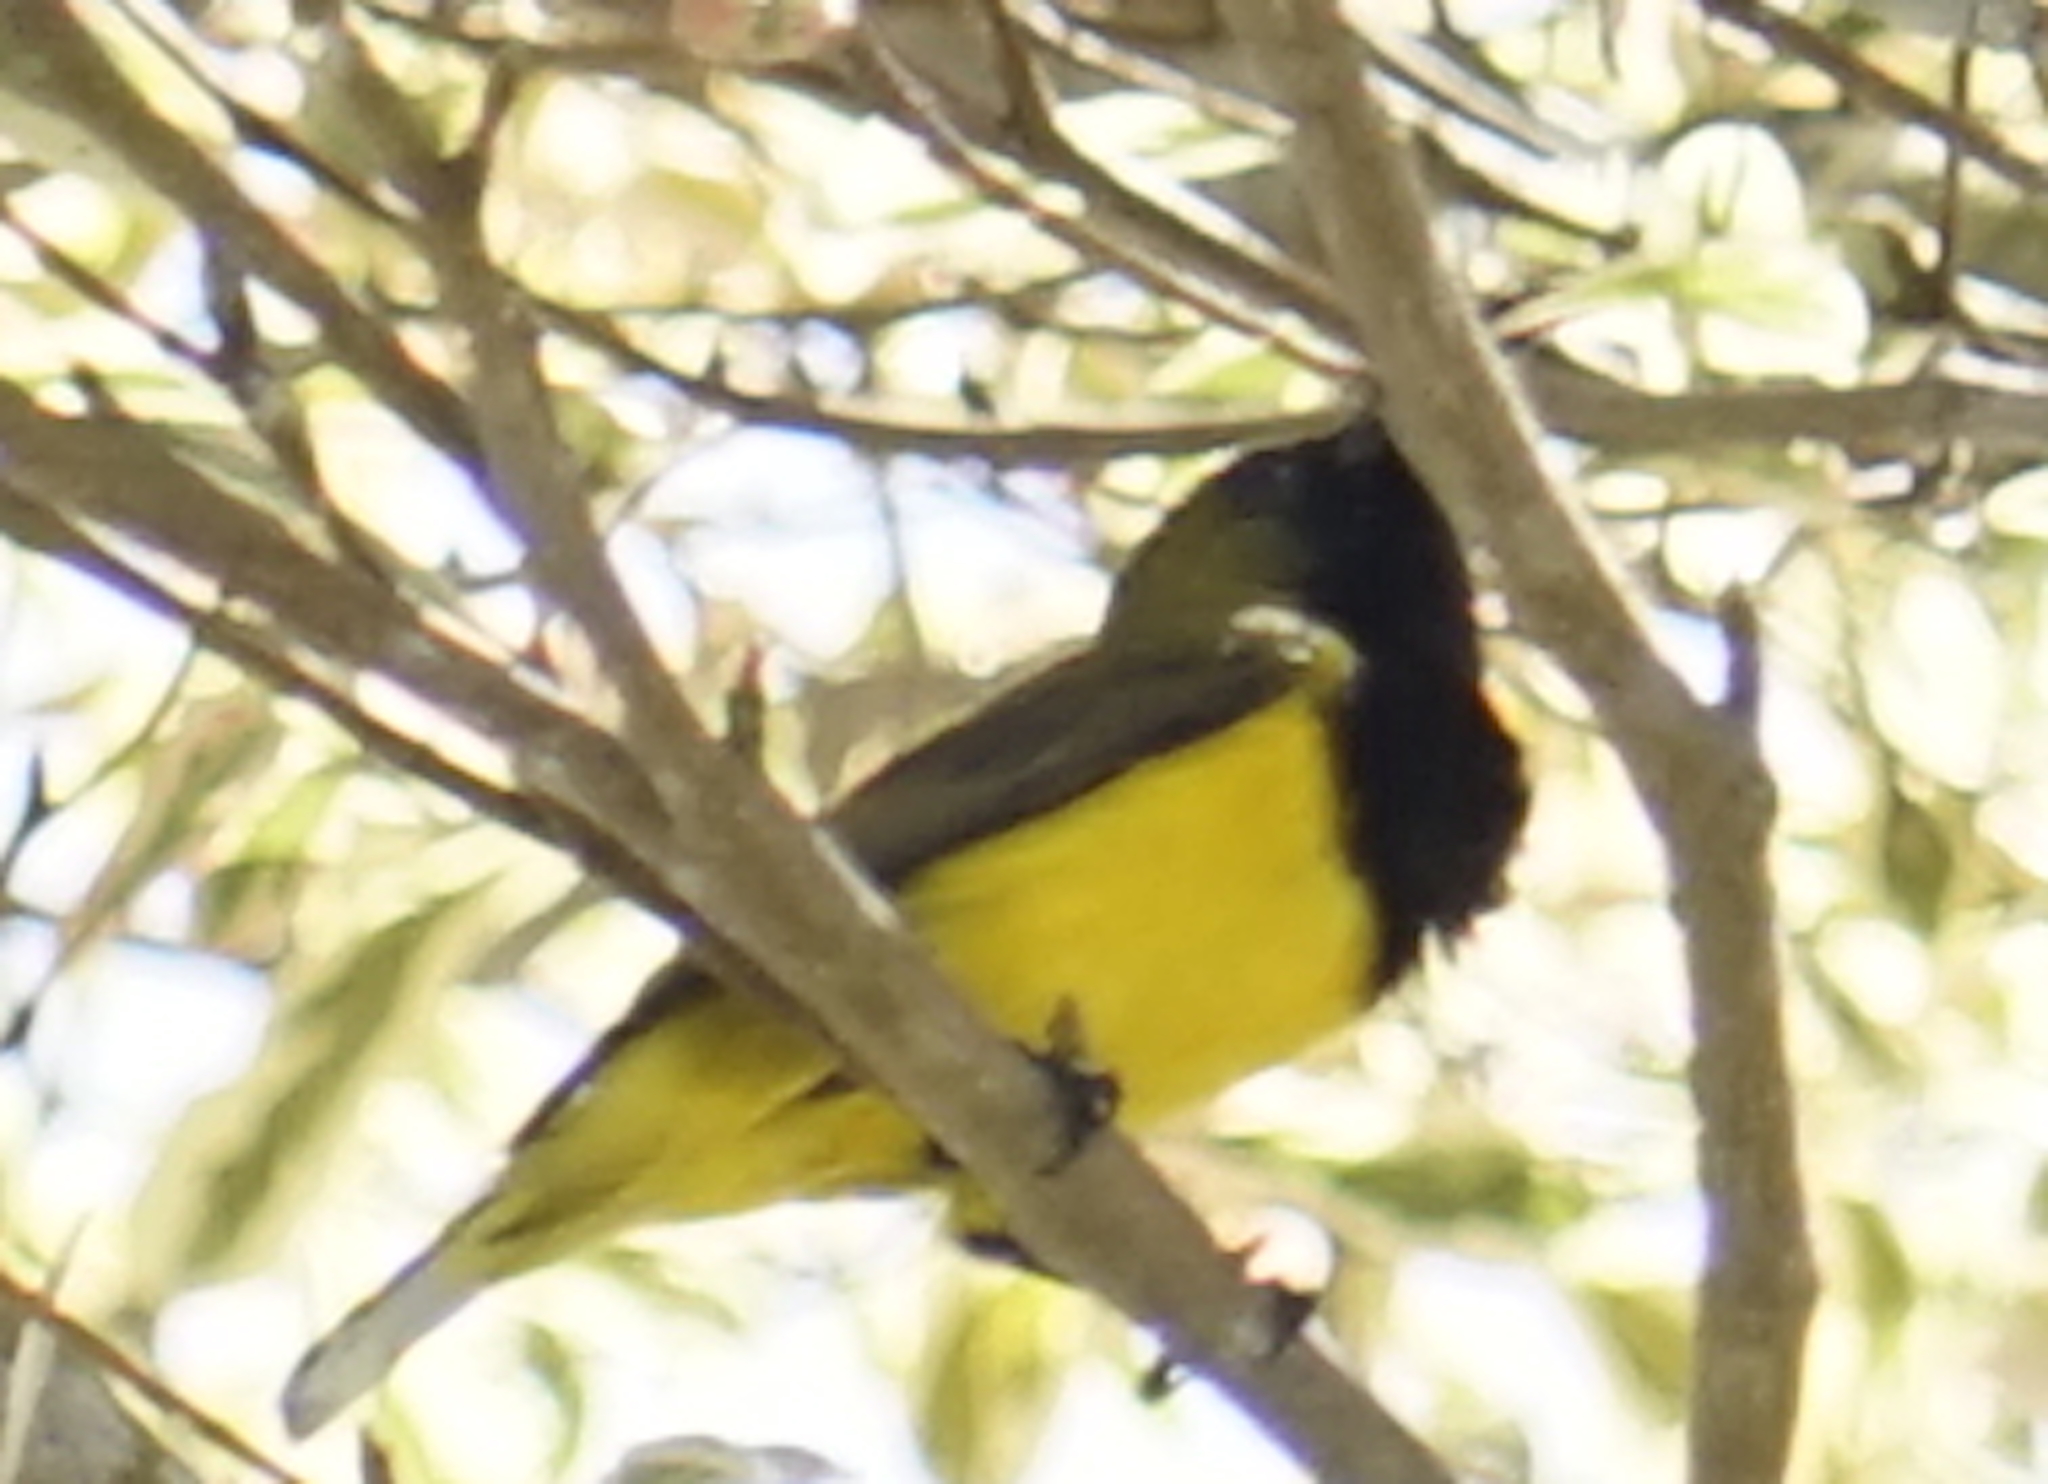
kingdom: Animalia
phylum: Chordata
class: Aves
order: Passeriformes
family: Nectariniidae
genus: Cinnyris
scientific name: Cinnyris
